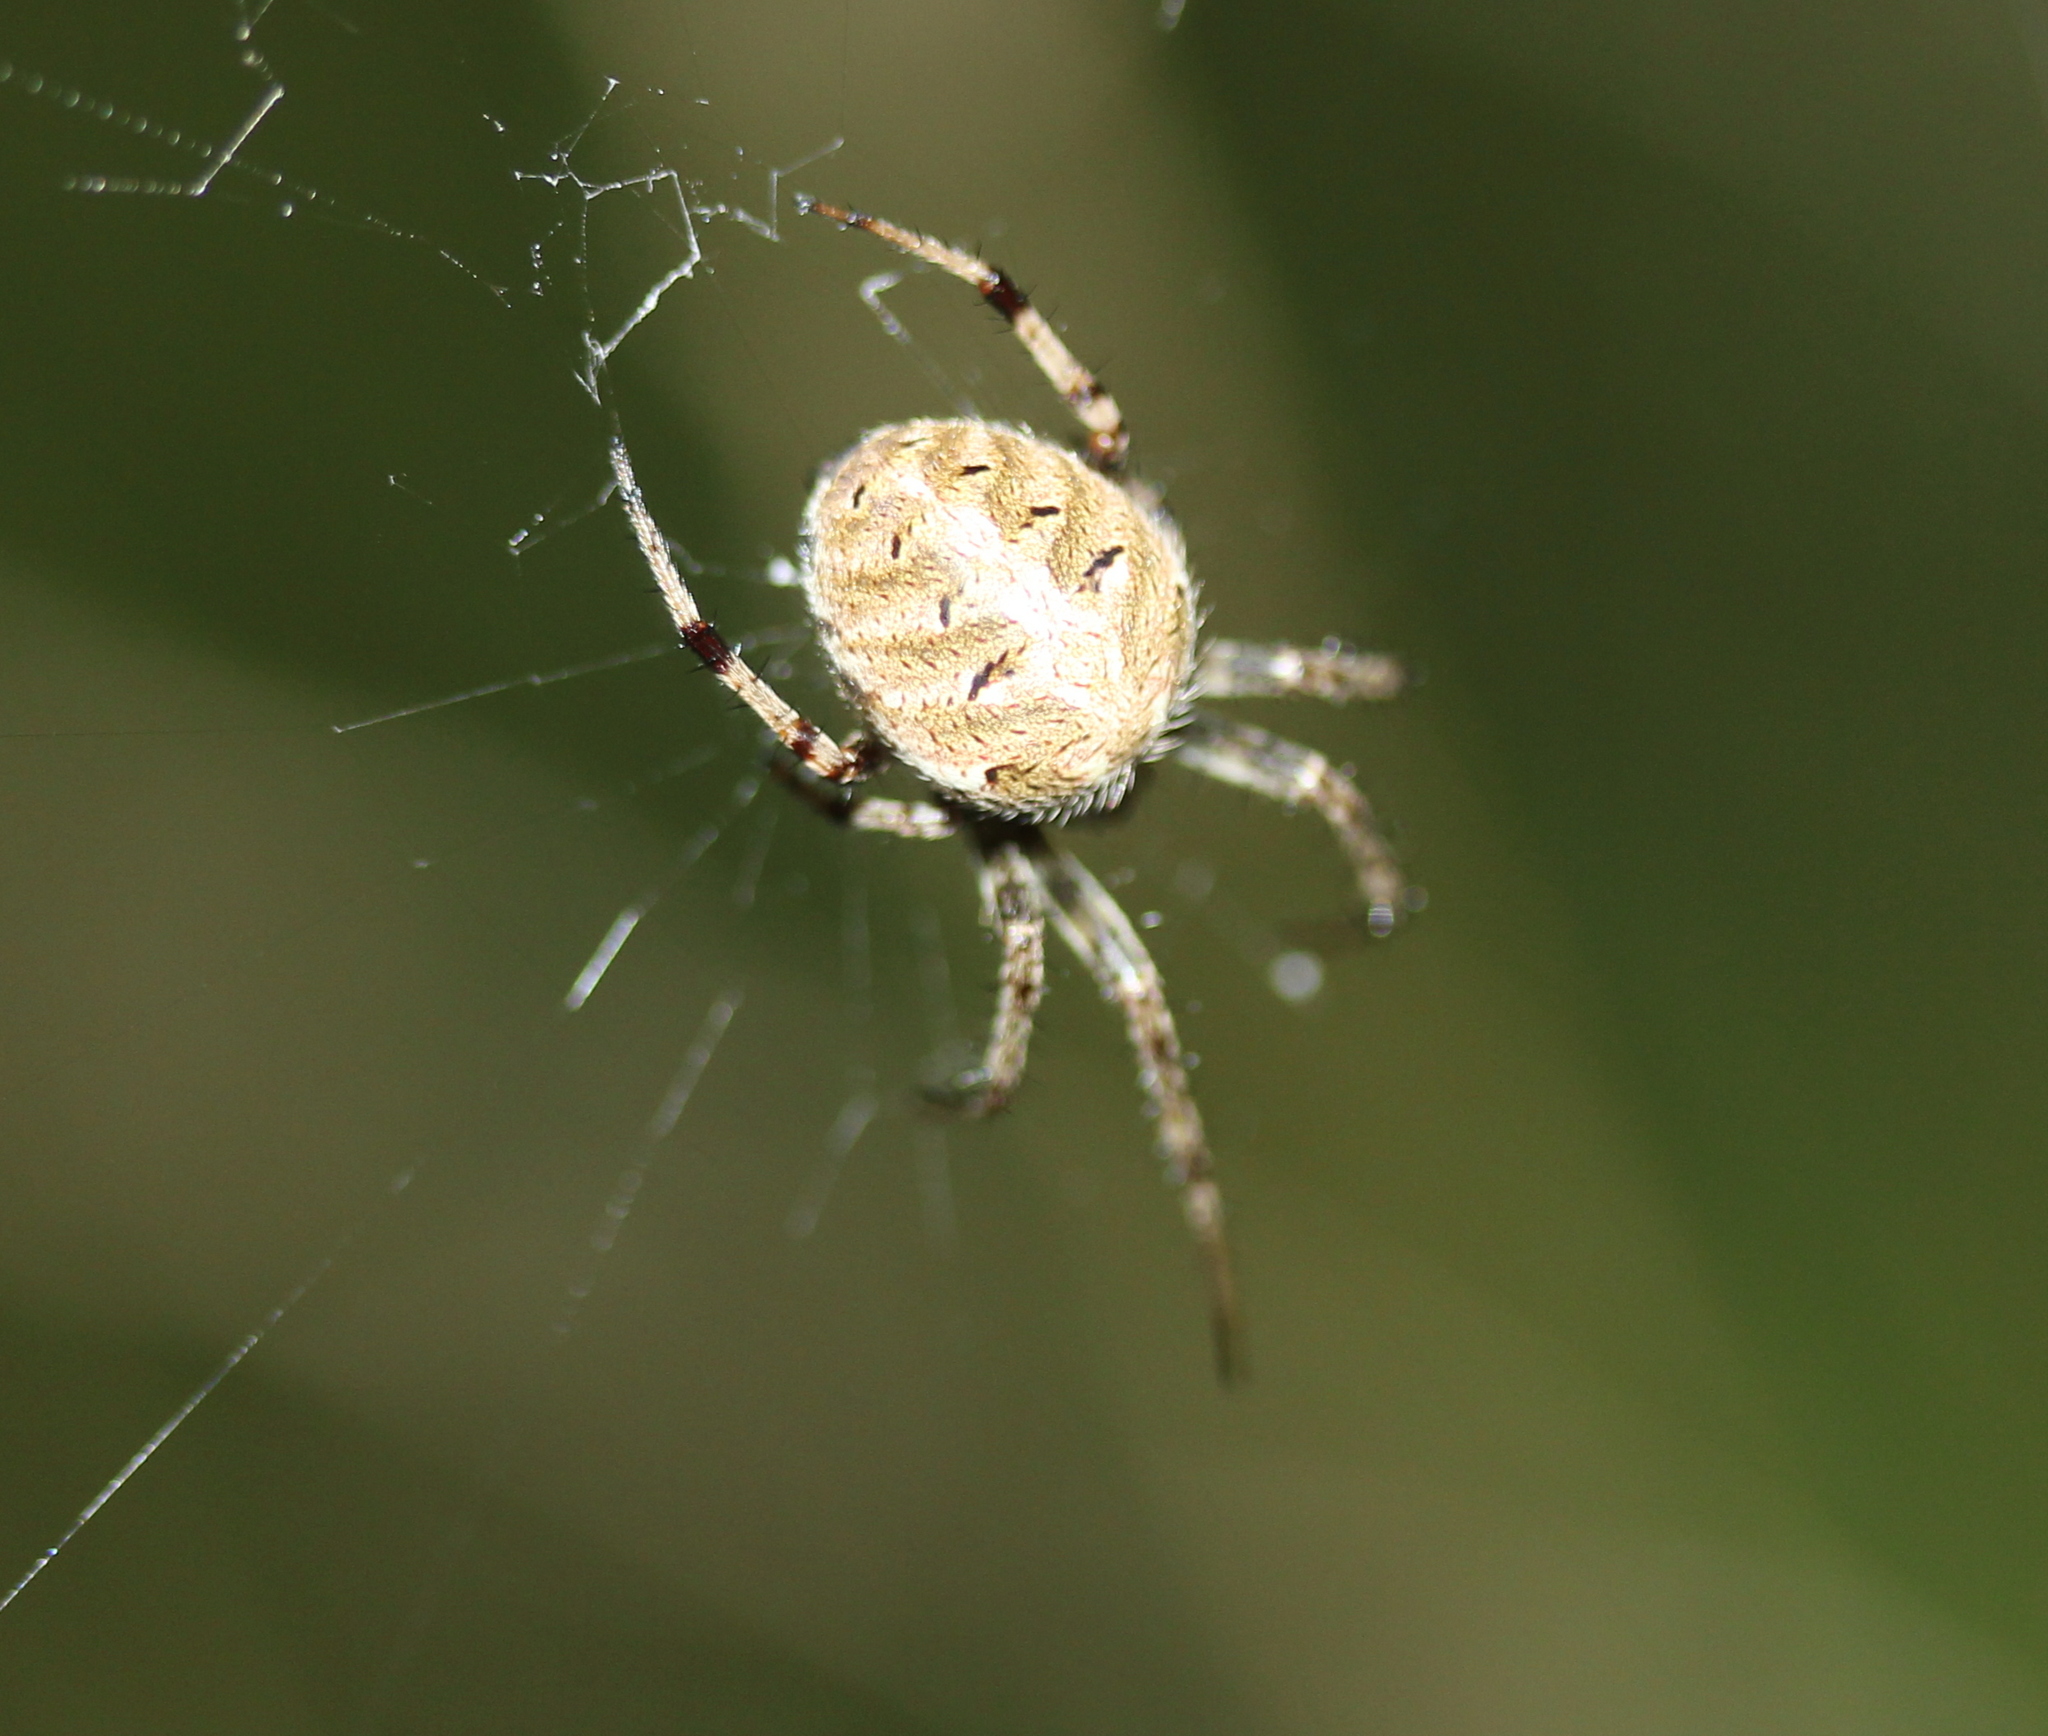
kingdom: Animalia
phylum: Arthropoda
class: Arachnida
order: Araneae
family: Araneidae
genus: Neoscona
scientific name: Neoscona arabesca
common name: Orb weavers
